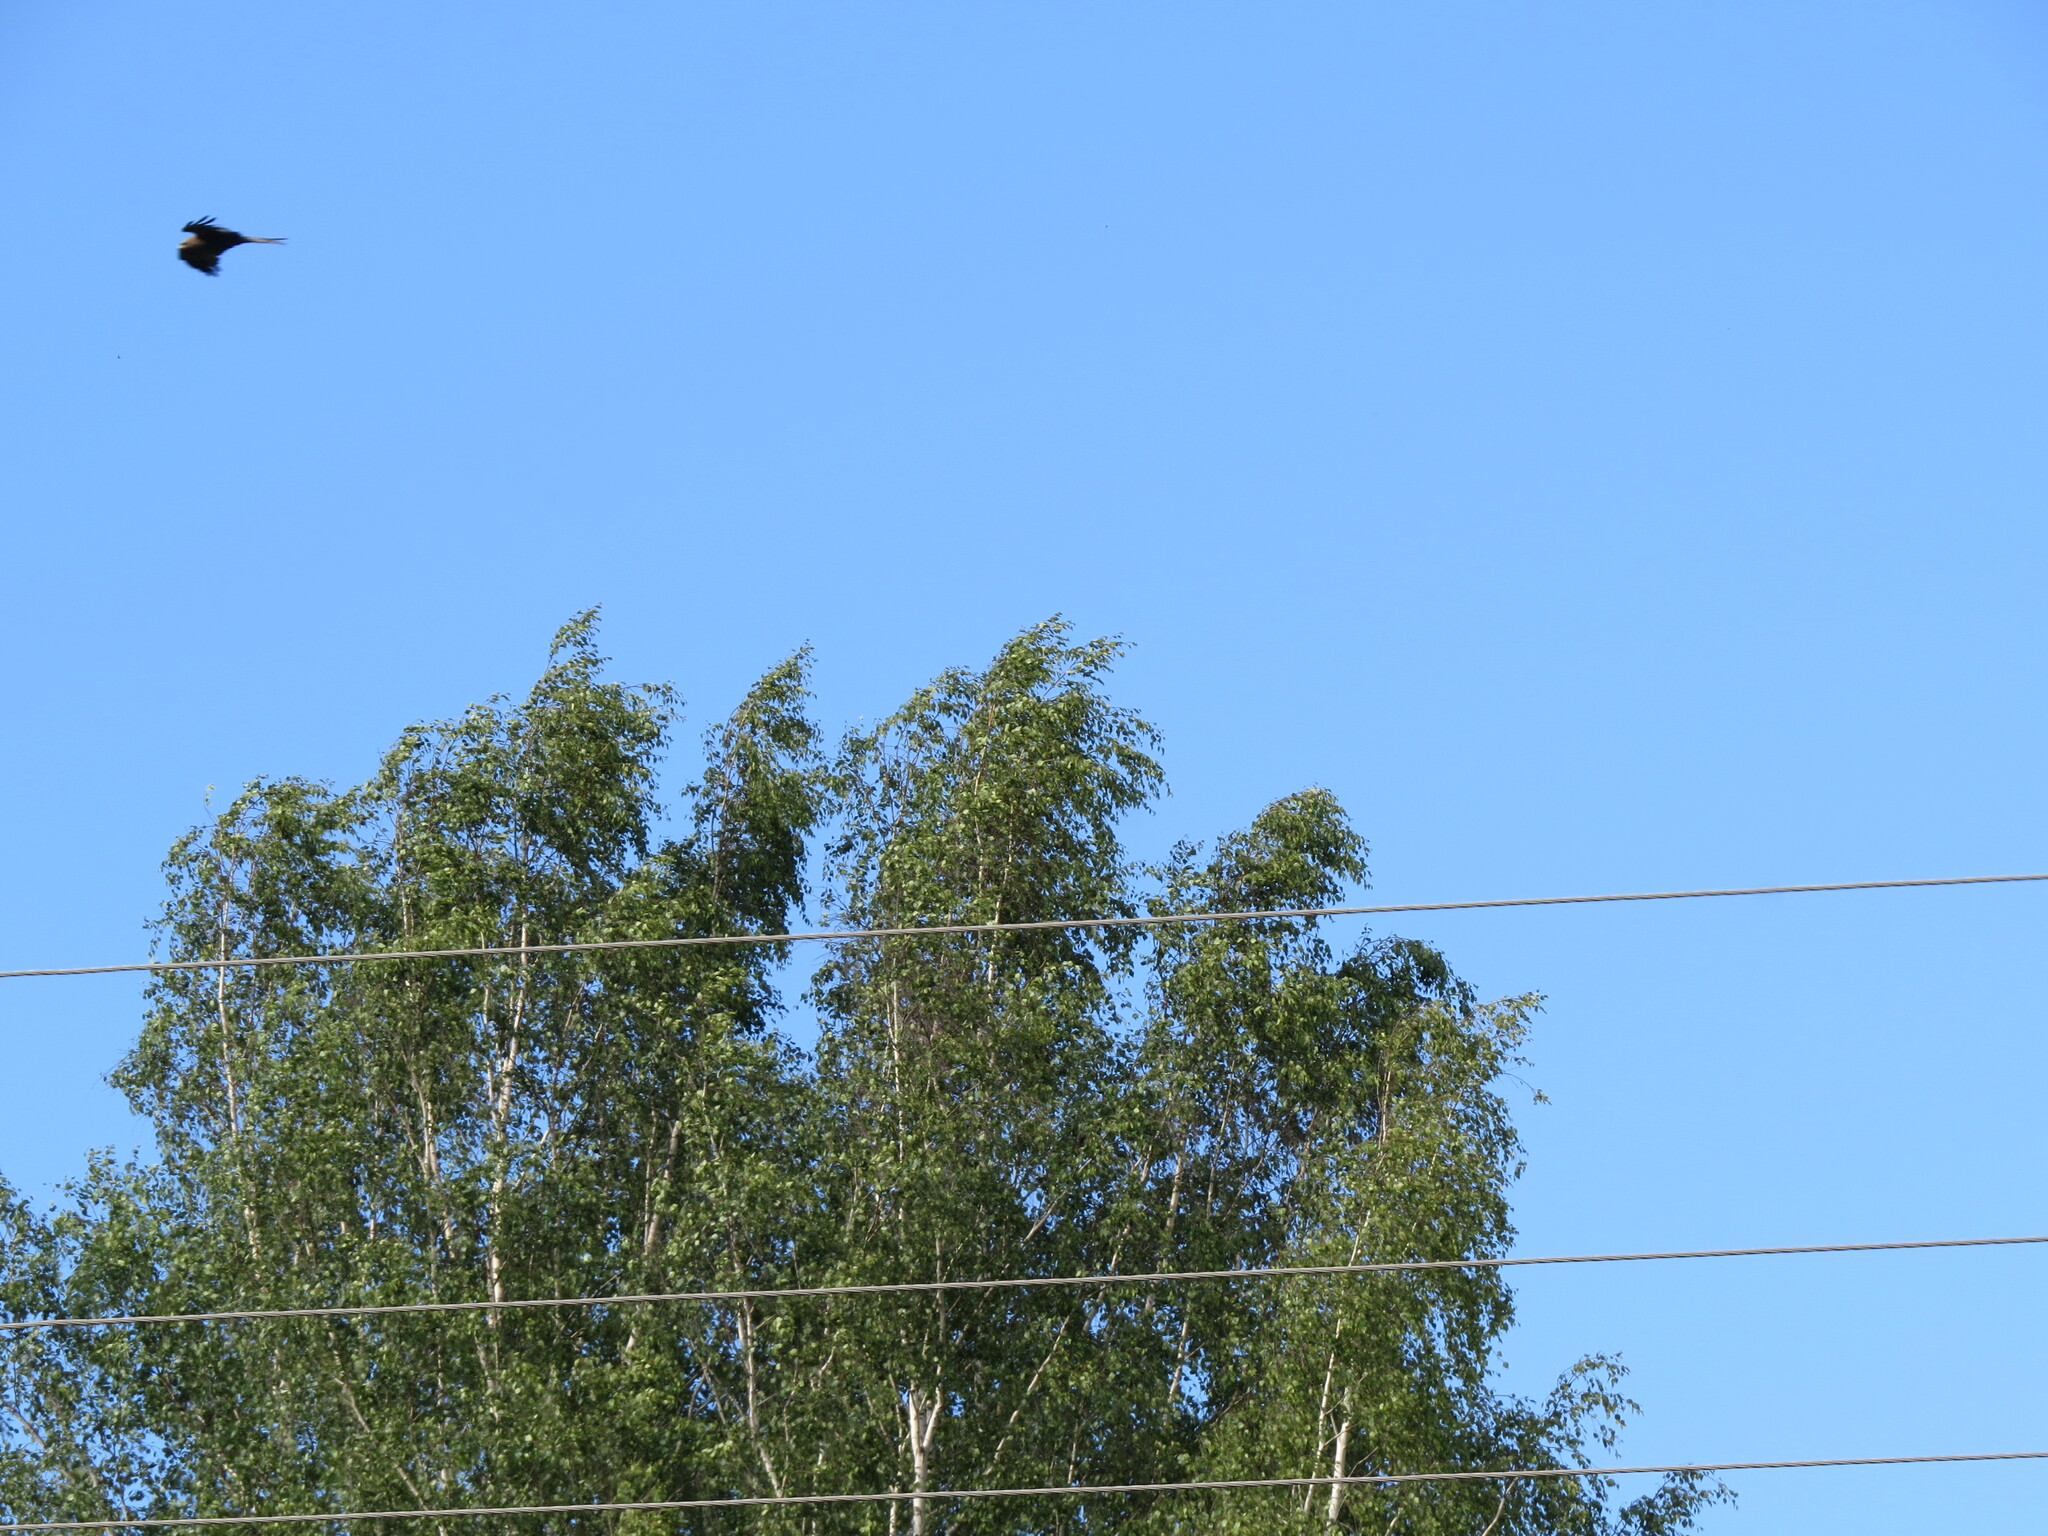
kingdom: Animalia
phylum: Chordata
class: Aves
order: Accipitriformes
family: Accipitridae
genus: Milvus
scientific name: Milvus migrans
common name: Black kite
